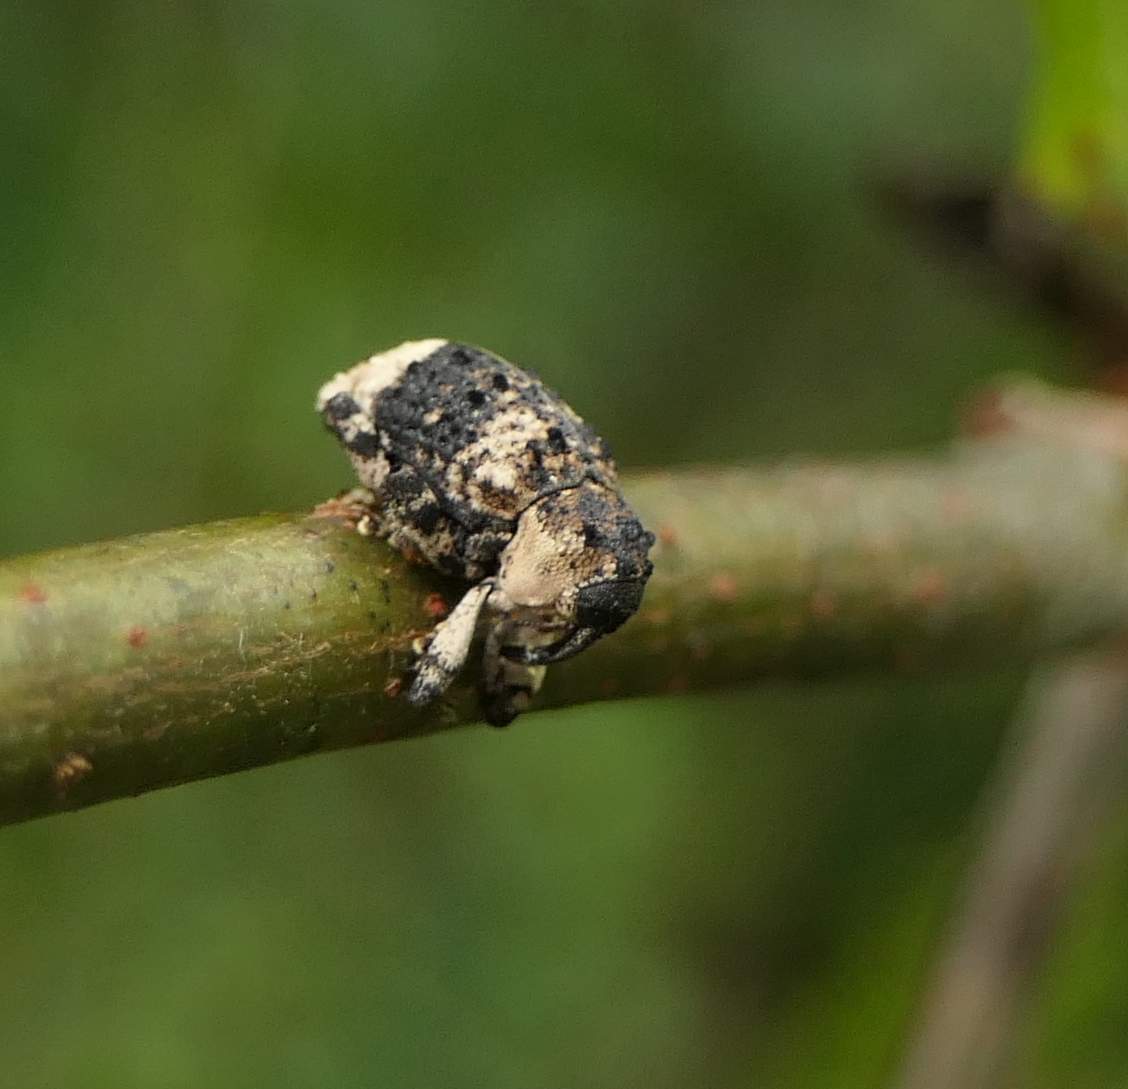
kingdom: Animalia
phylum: Arthropoda
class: Insecta
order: Coleoptera
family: Curculionidae
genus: Cryptorhynchus
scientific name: Cryptorhynchus lapathi
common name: Weevil
